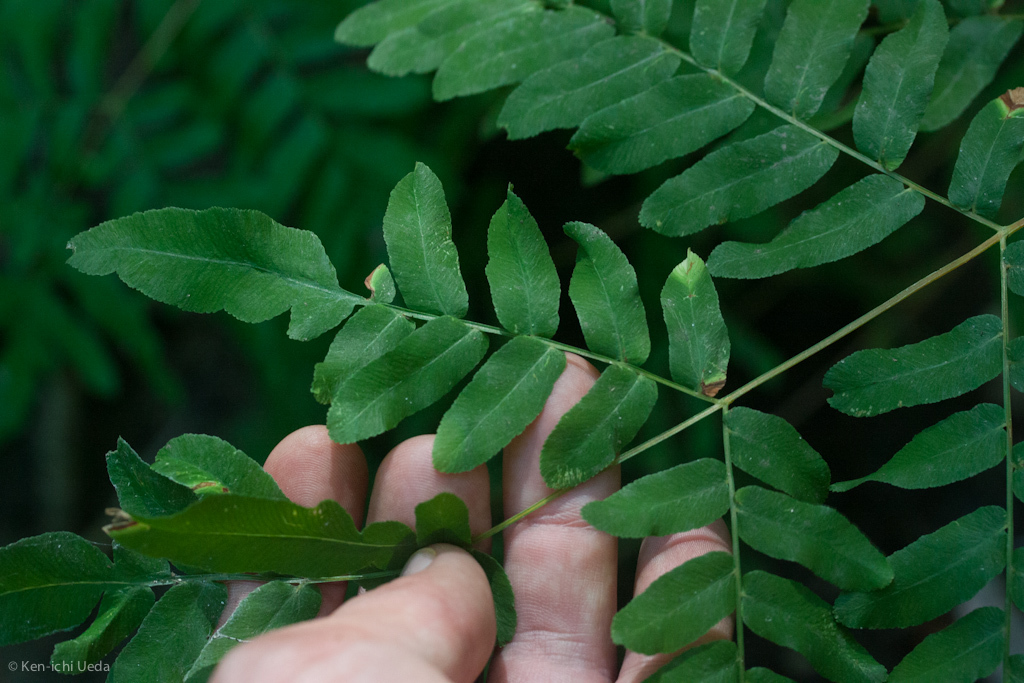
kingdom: Plantae
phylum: Tracheophyta
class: Polypodiopsida
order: Osmundales
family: Osmundaceae
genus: Osmunda
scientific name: Osmunda spectabilis
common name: American royal fern
